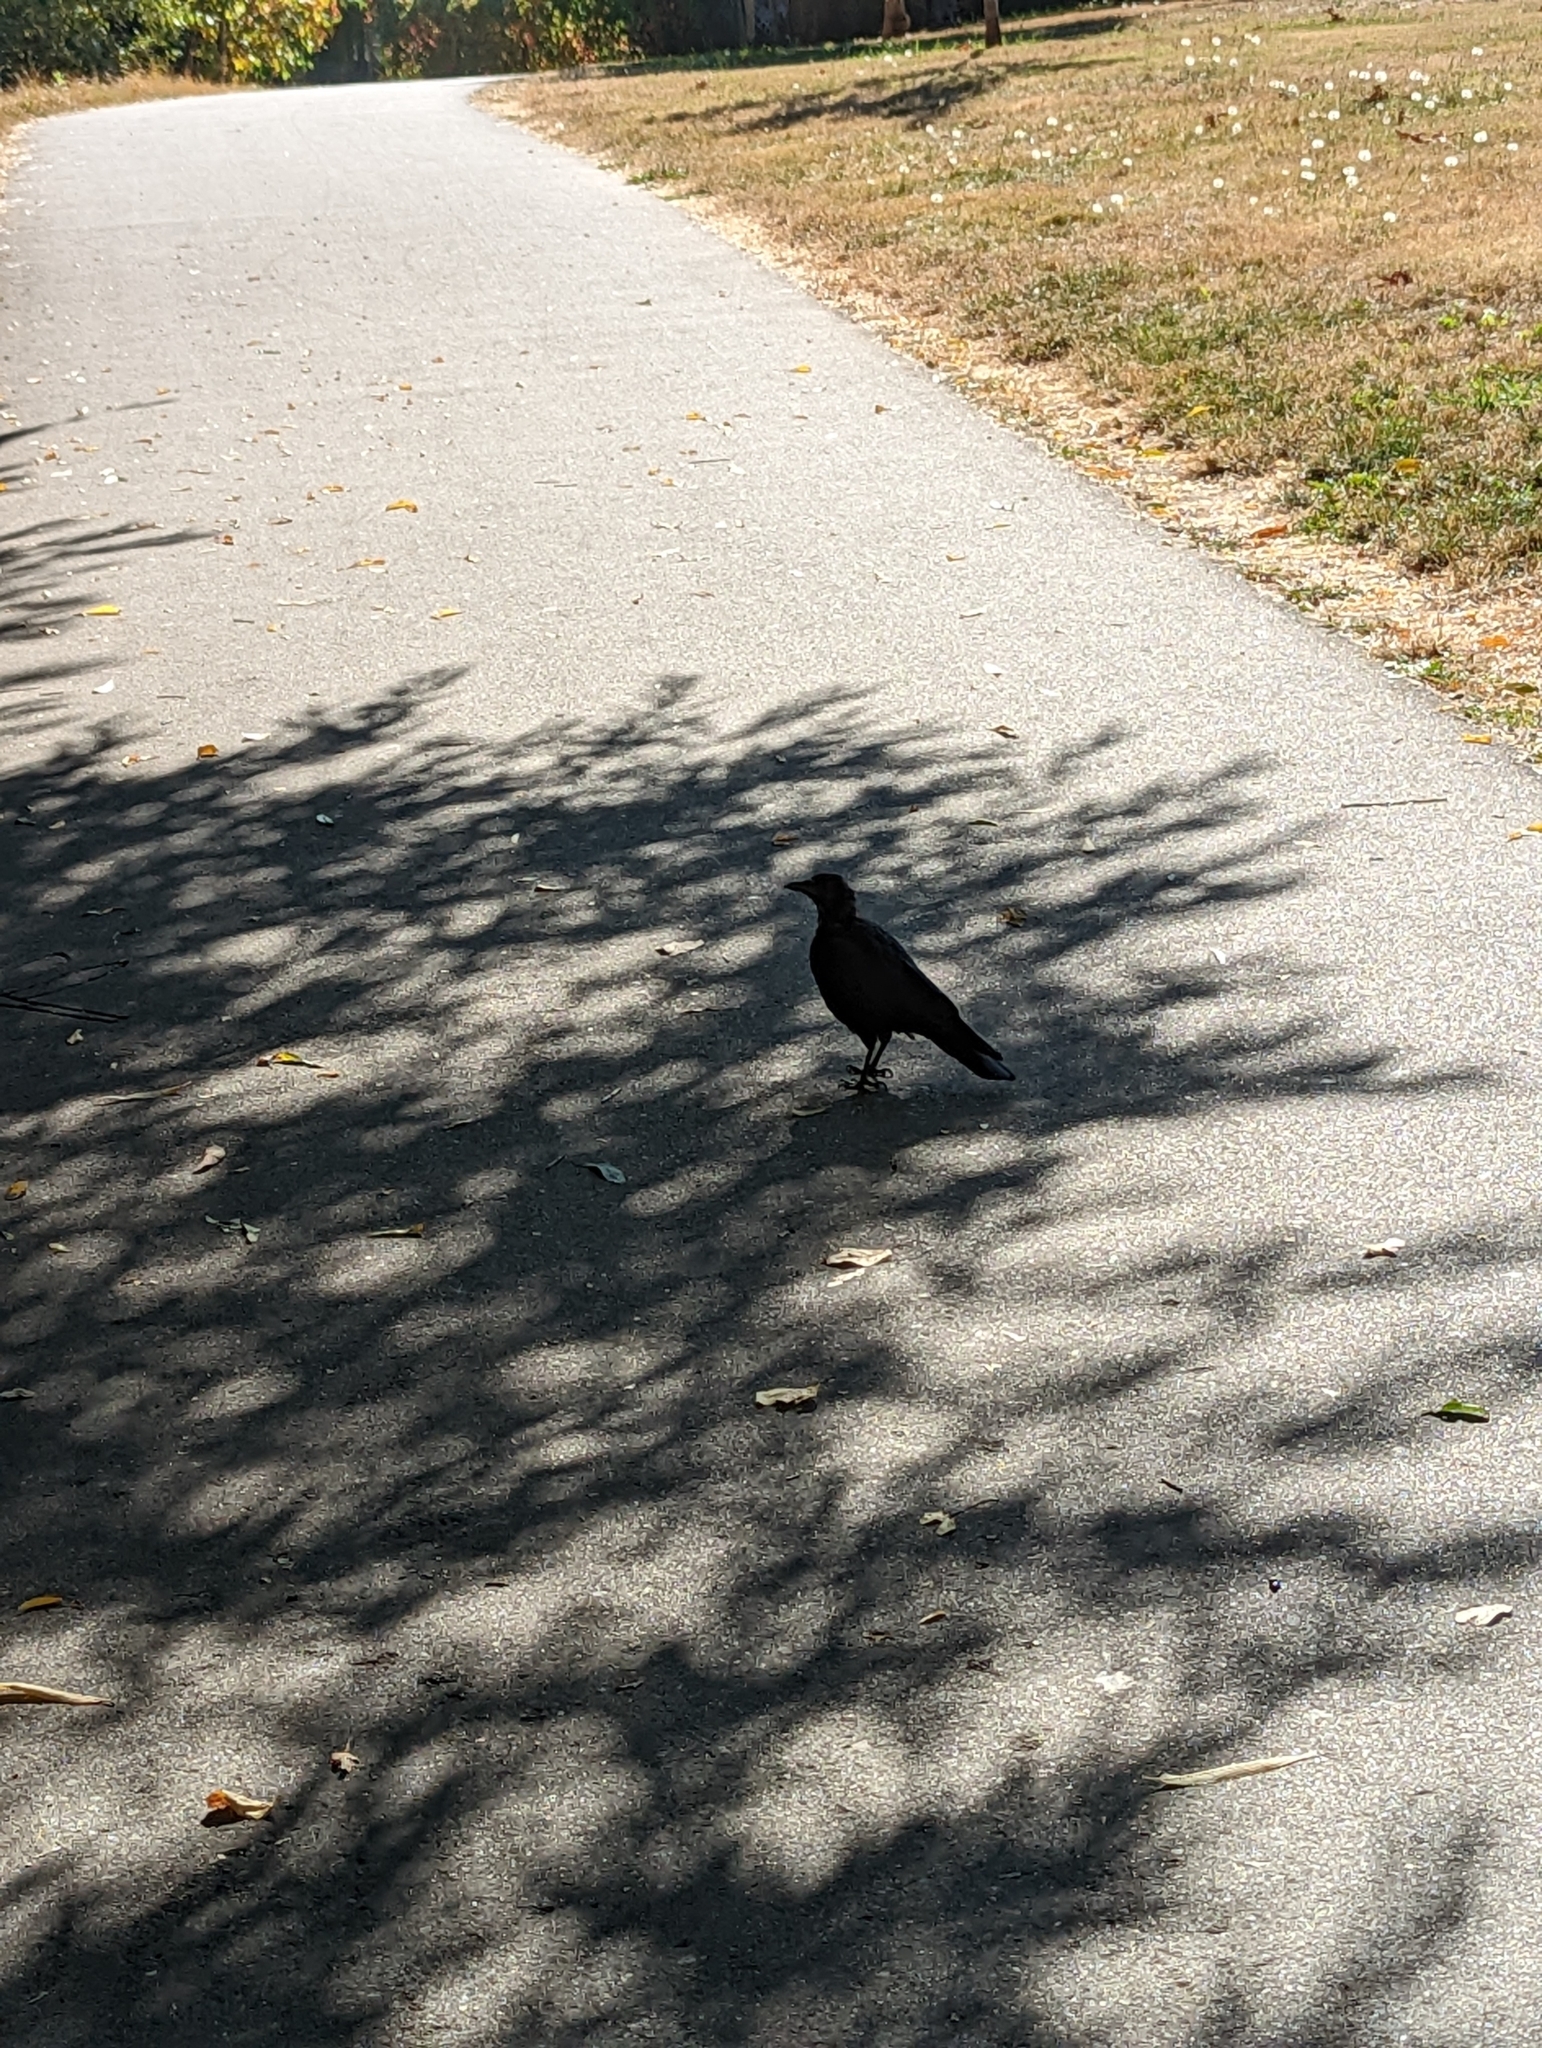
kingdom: Animalia
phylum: Chordata
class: Aves
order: Passeriformes
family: Corvidae
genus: Corvus
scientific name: Corvus brachyrhynchos
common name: American crow
